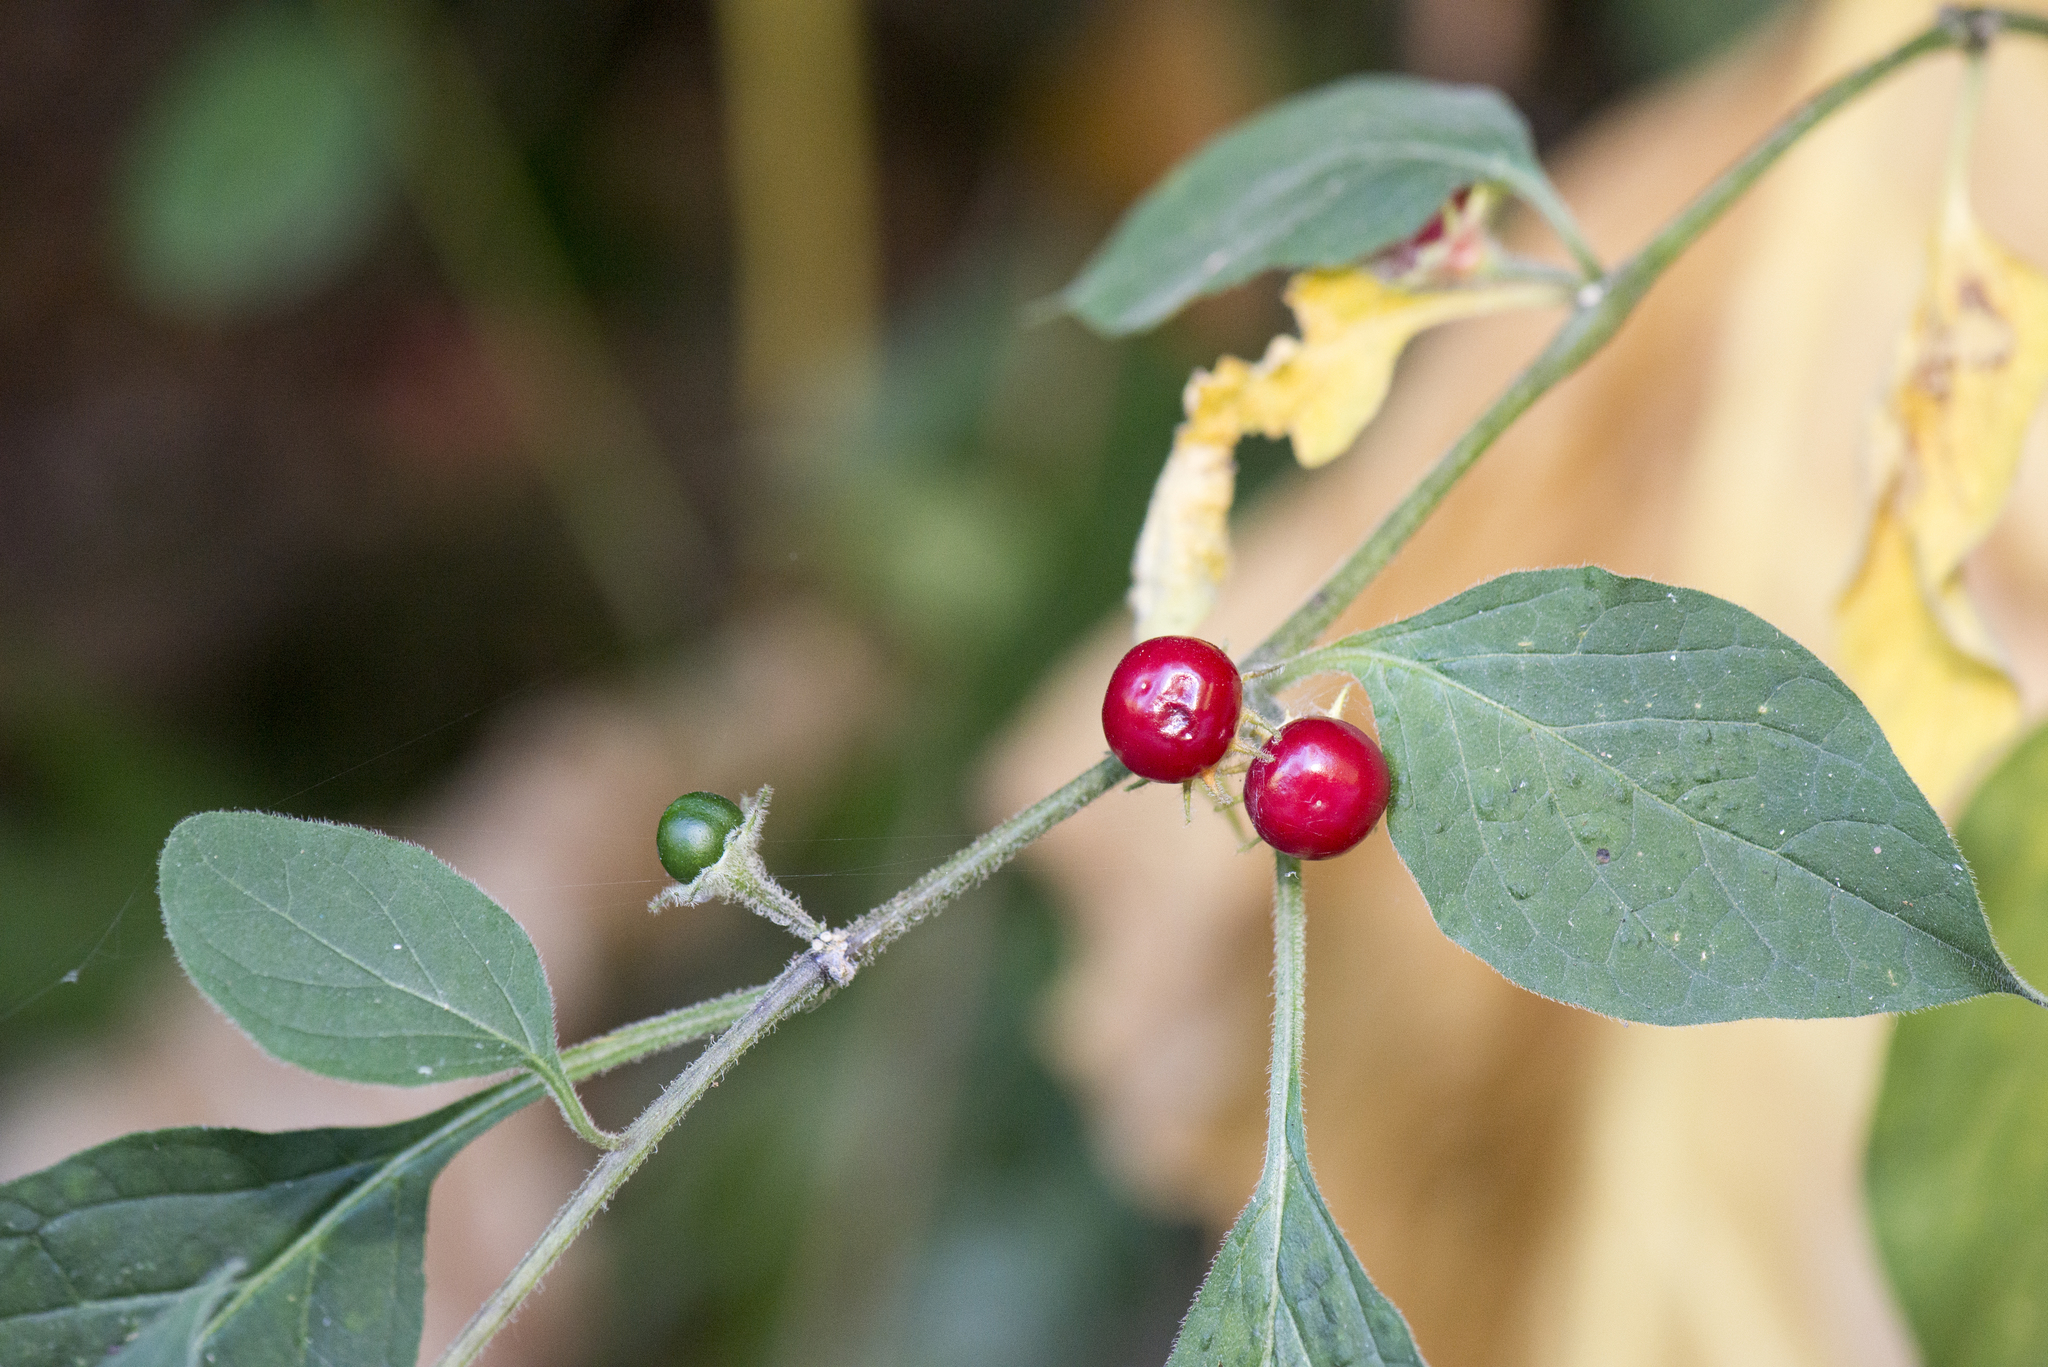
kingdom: Plantae
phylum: Tracheophyta
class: Magnoliopsida
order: Solanales
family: Solanaceae
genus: Lycianthes
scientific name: Lycianthes biflora
